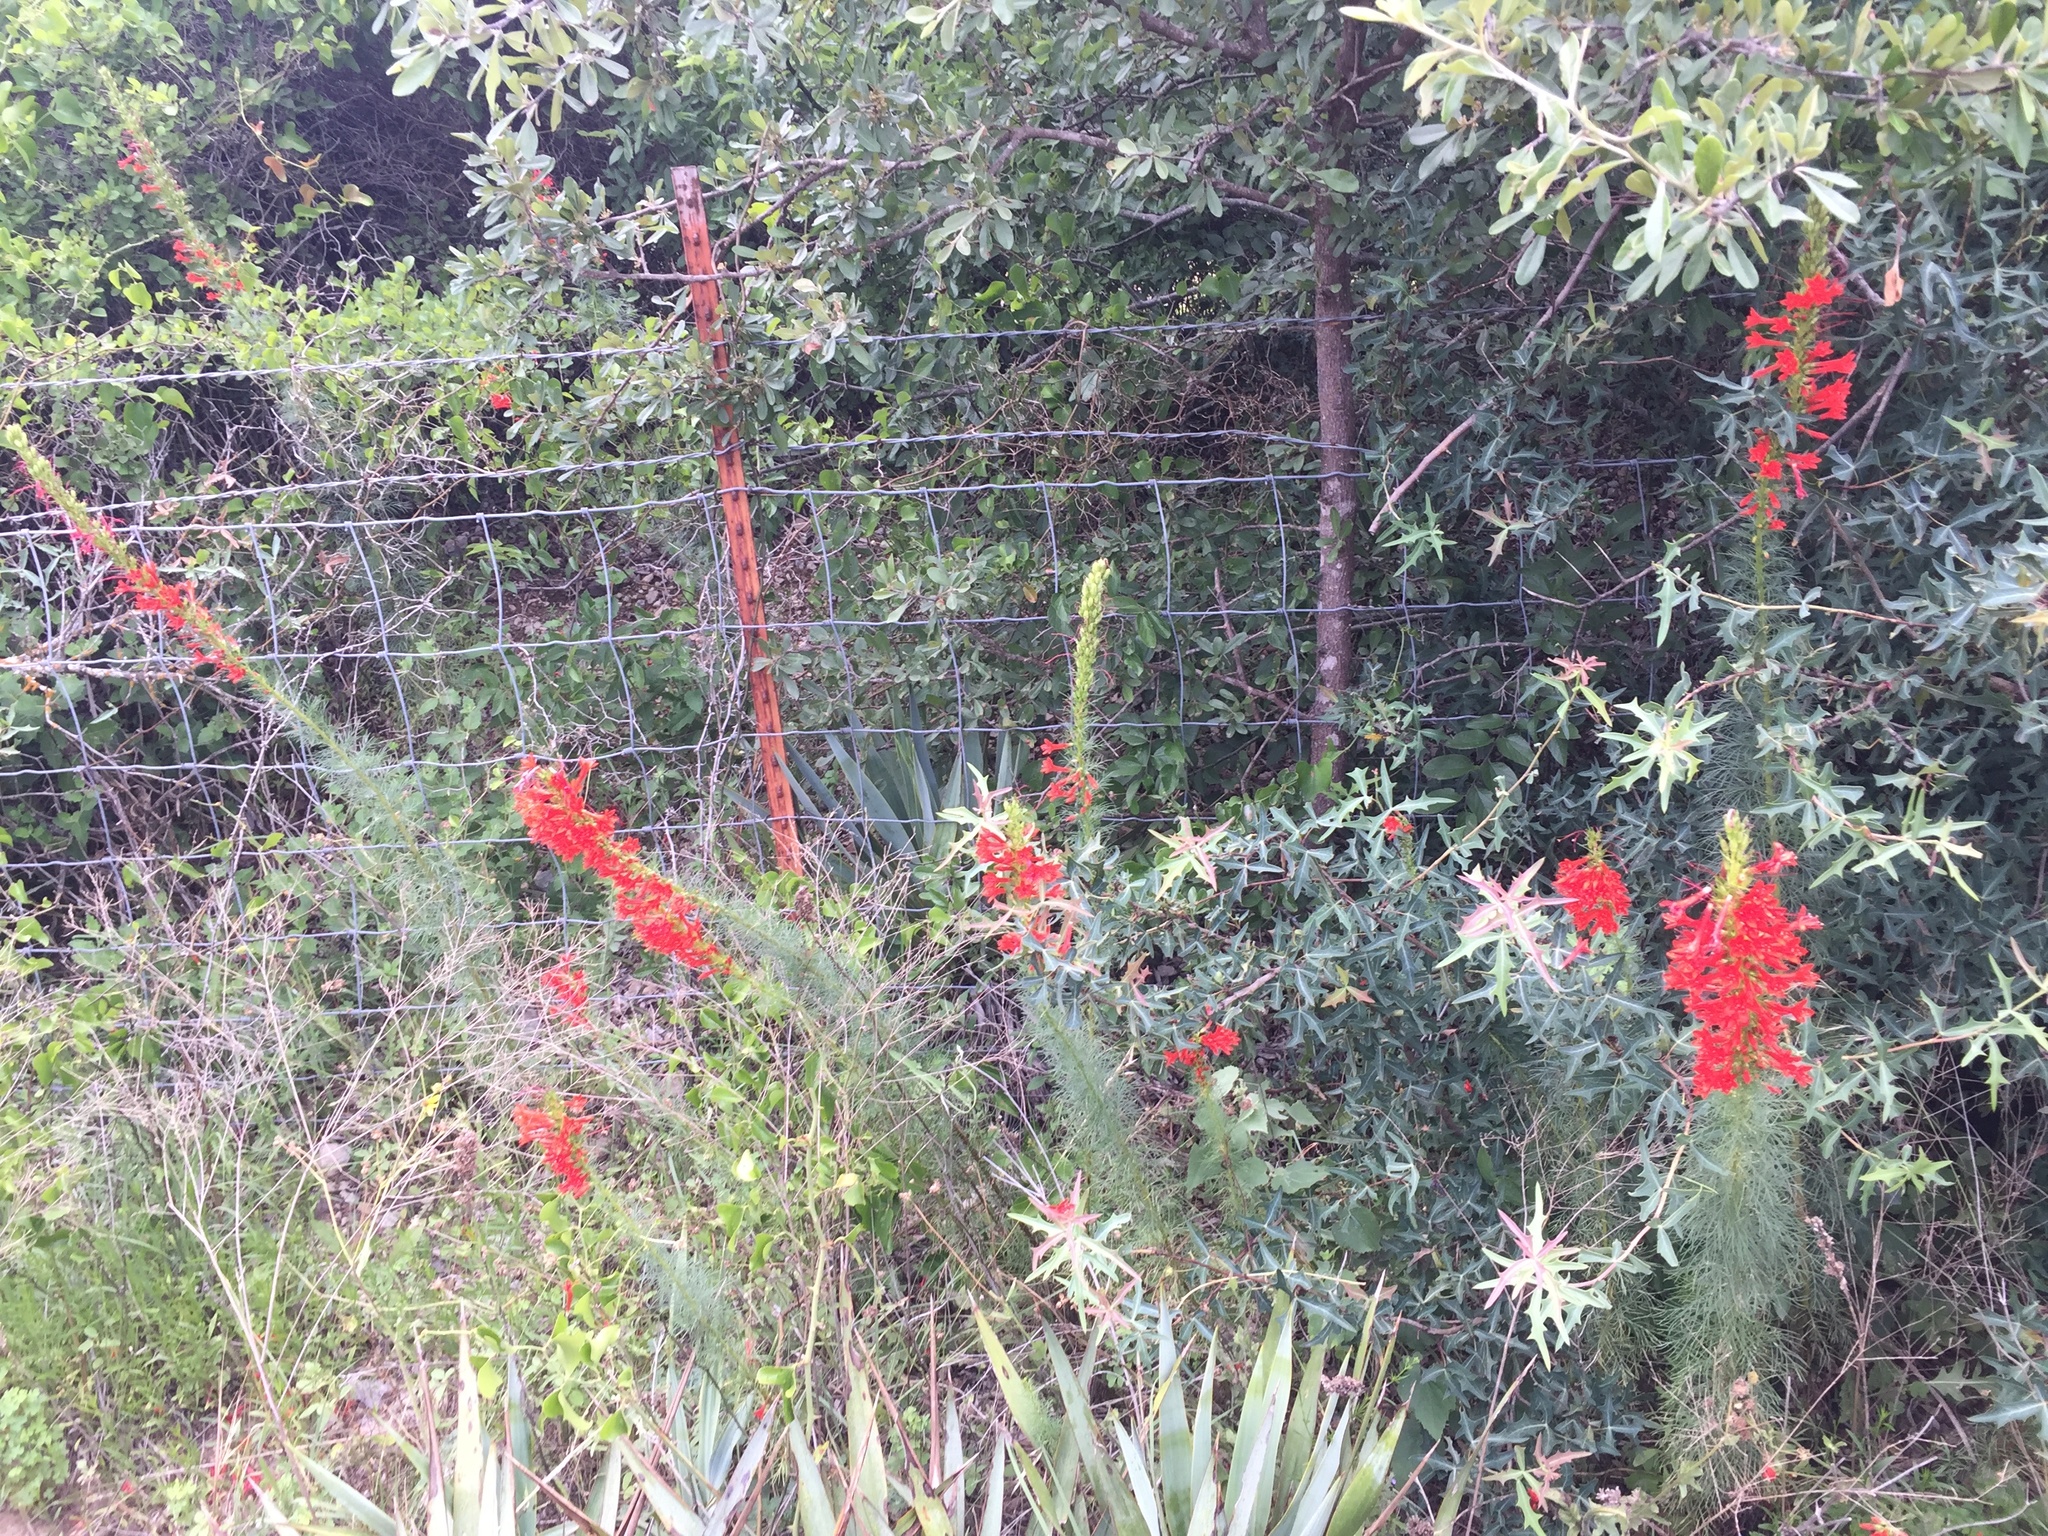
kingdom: Plantae
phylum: Tracheophyta
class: Magnoliopsida
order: Ericales
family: Polemoniaceae
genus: Ipomopsis
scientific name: Ipomopsis rubra
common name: Skyrocket
